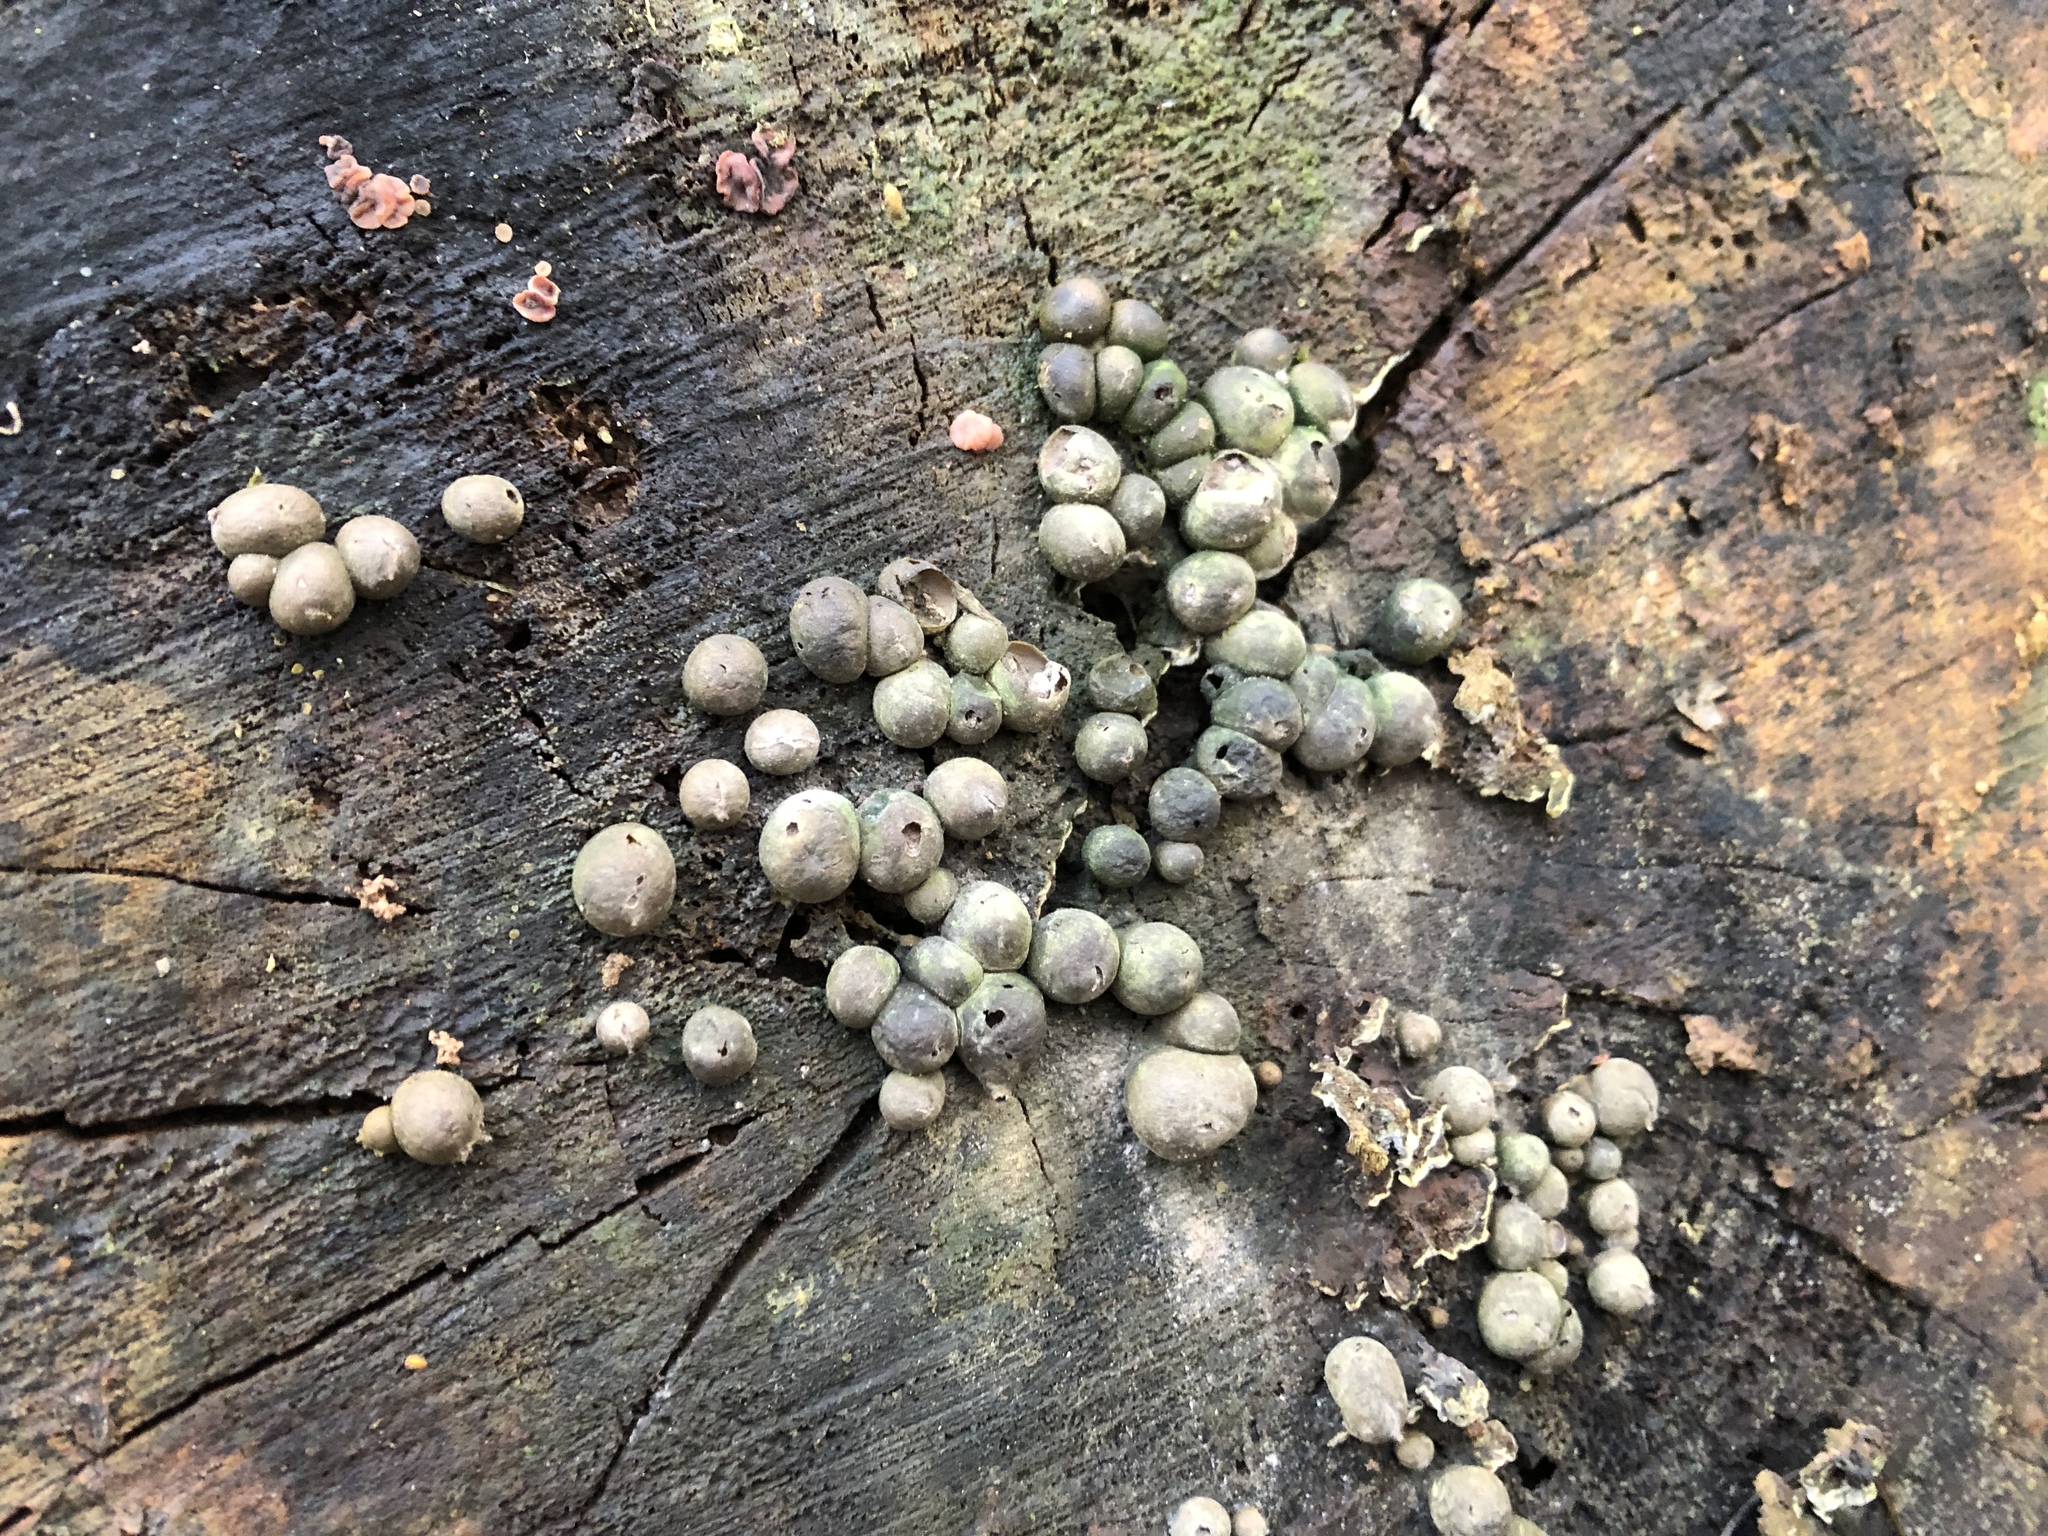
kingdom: Protozoa
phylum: Mycetozoa
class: Myxomycetes
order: Cribrariales
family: Tubiferaceae
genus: Lycogala
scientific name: Lycogala epidendrum
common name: Wolf's milk
